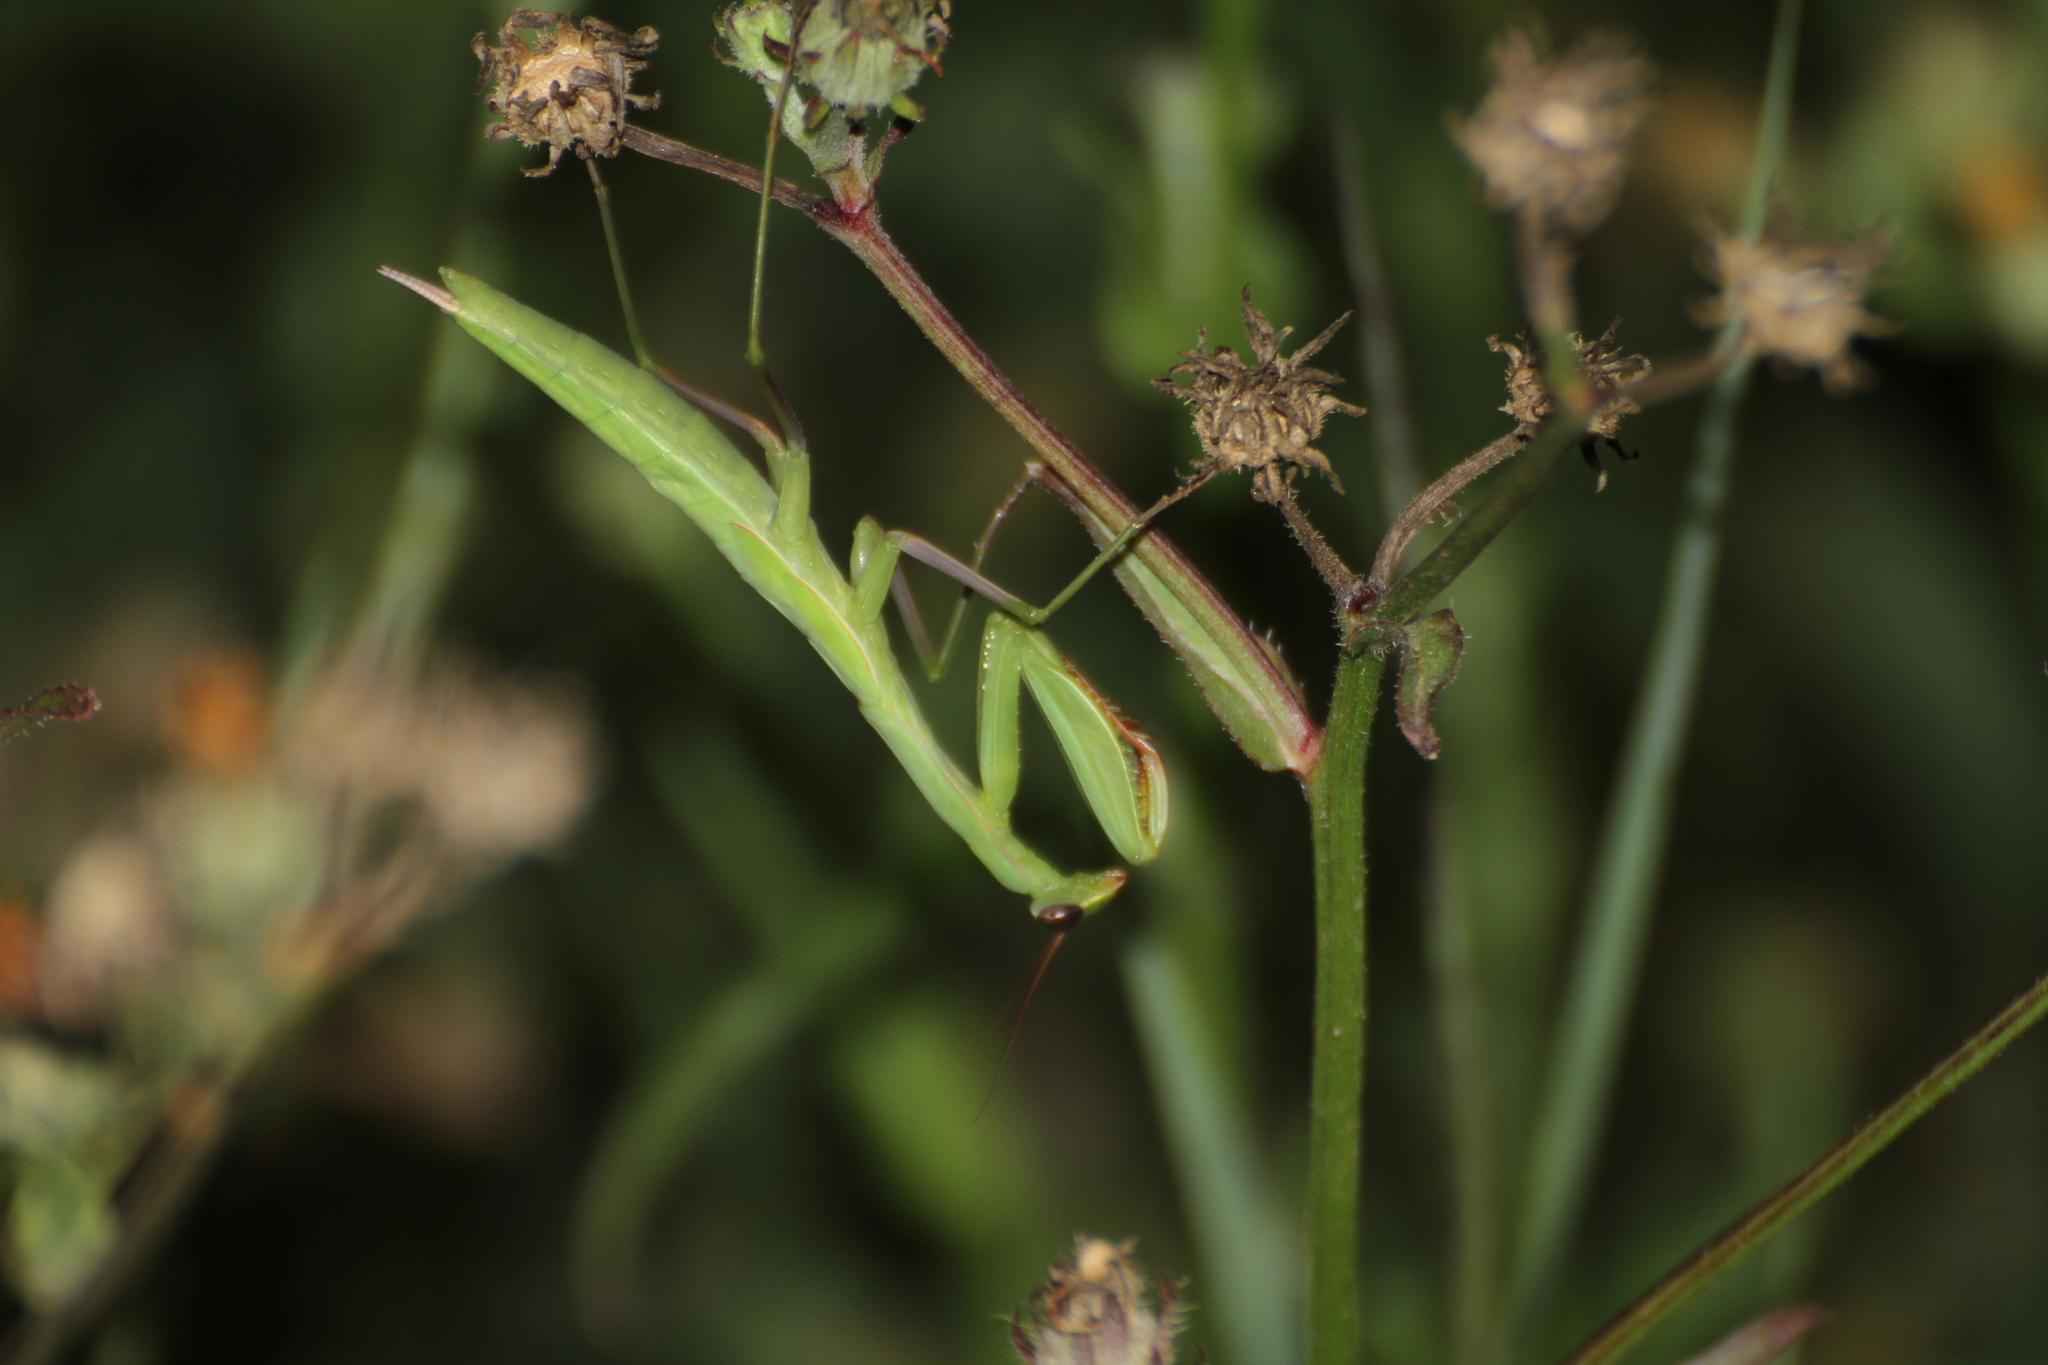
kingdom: Animalia
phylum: Arthropoda
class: Insecta
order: Mantodea
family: Mantidae
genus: Mantis
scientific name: Mantis religiosa
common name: Praying mantis
